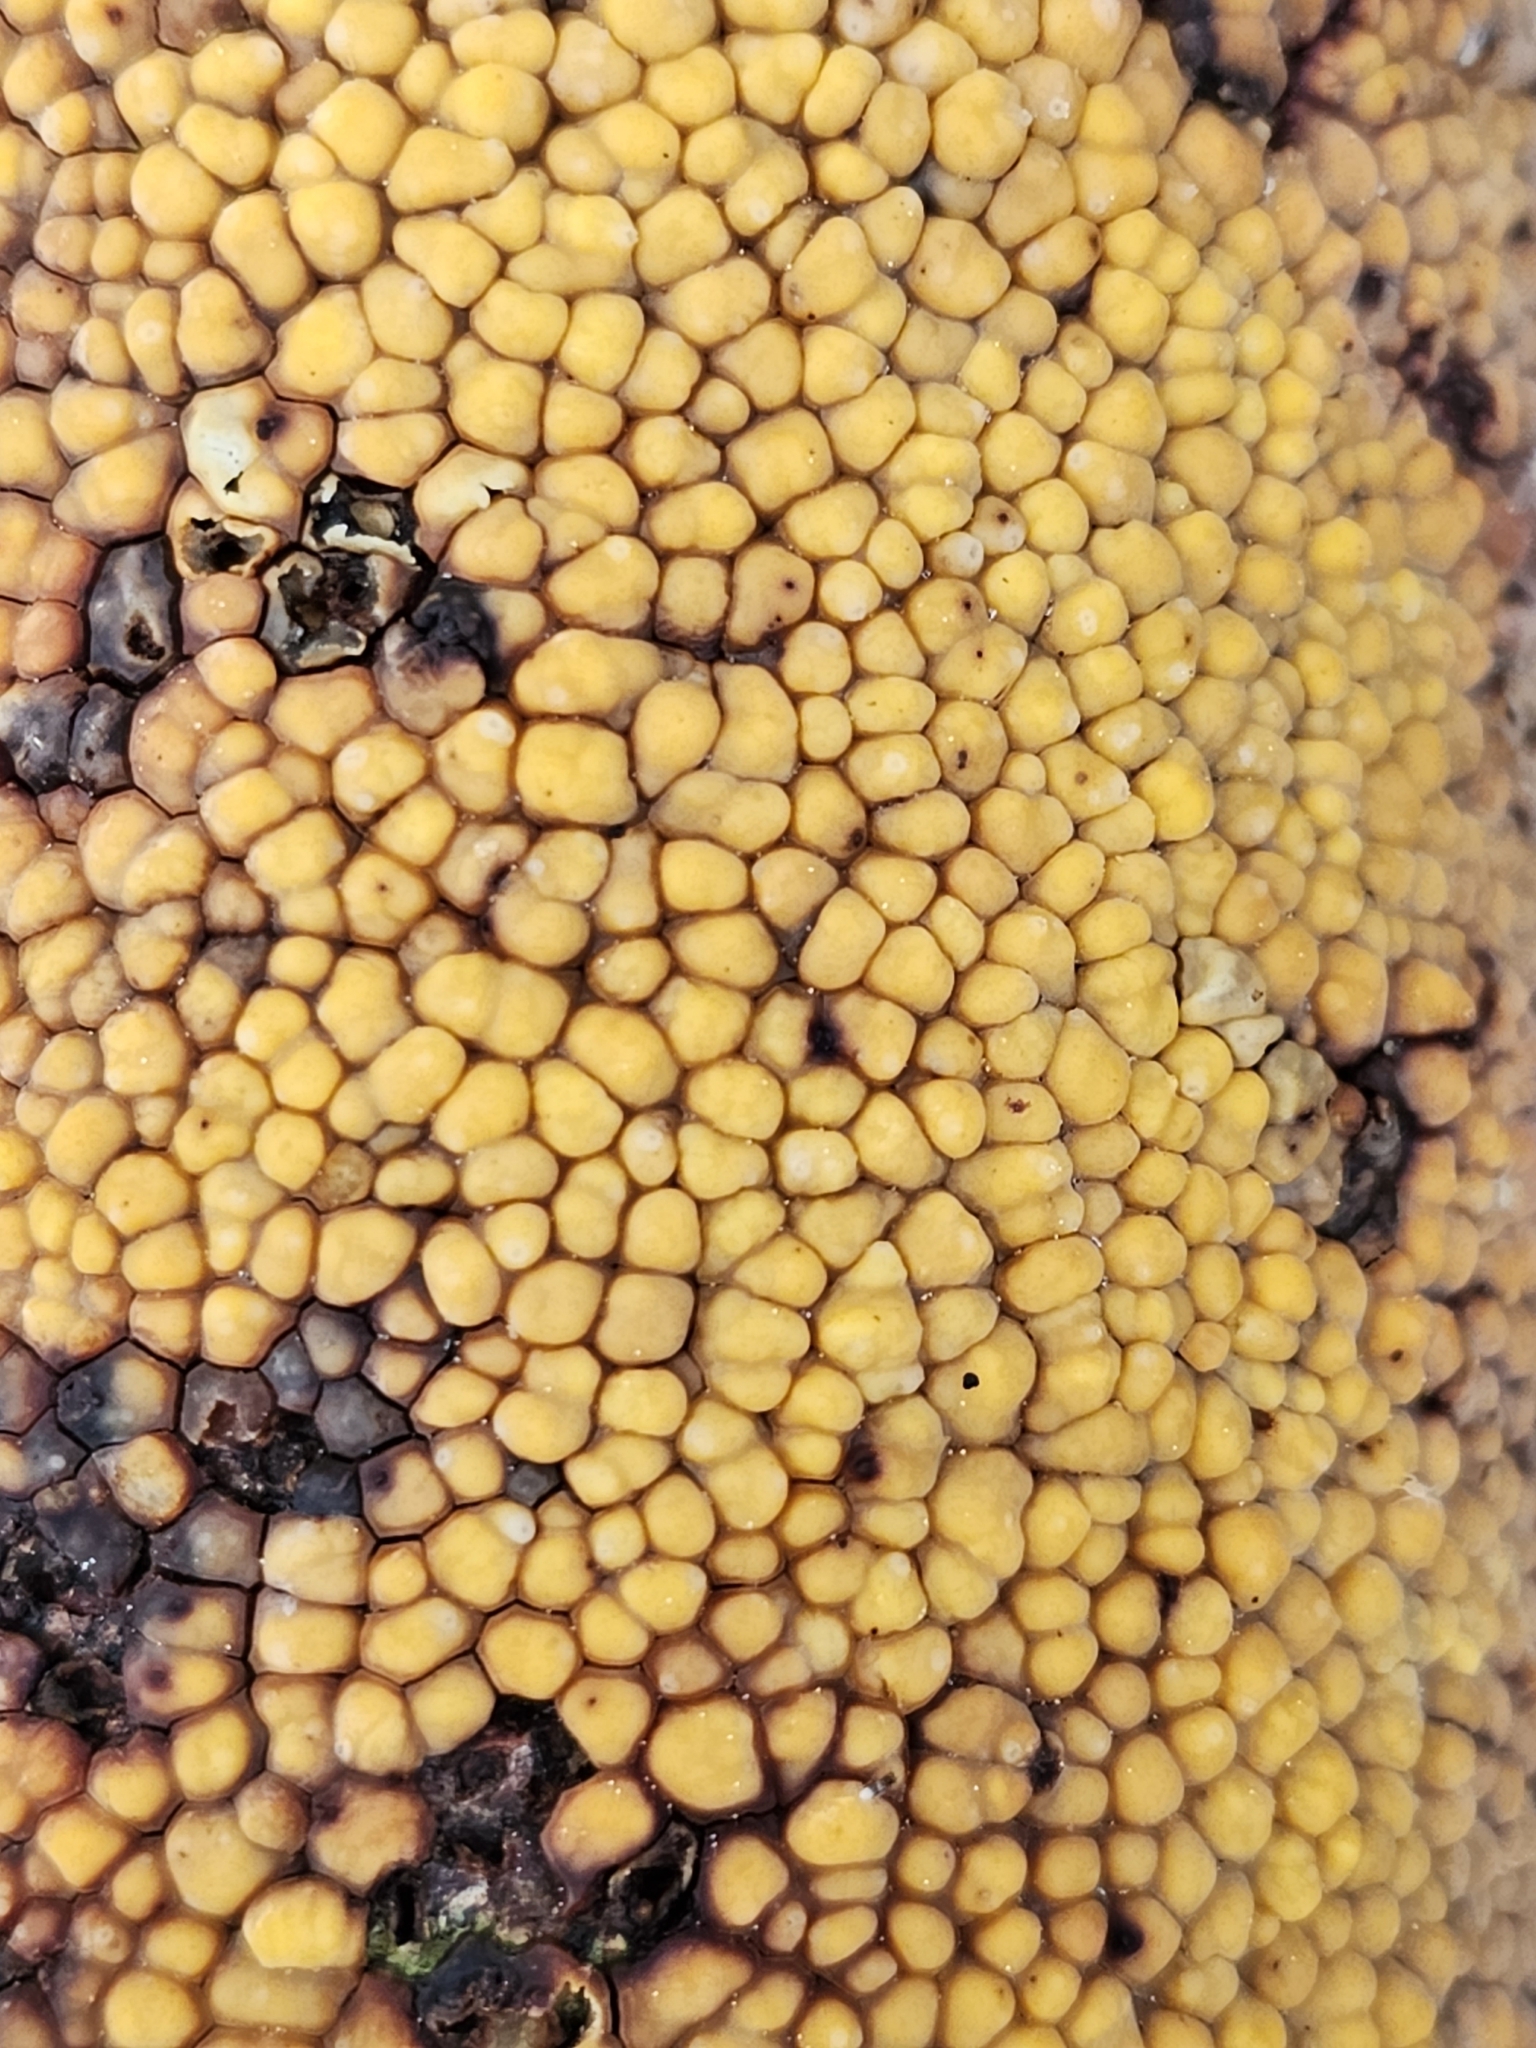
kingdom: Fungi
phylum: Basidiomycota
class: Agaricomycetes
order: Russulales
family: Stereaceae
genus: Aleurodiscus
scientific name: Aleurodiscus berggrenii
